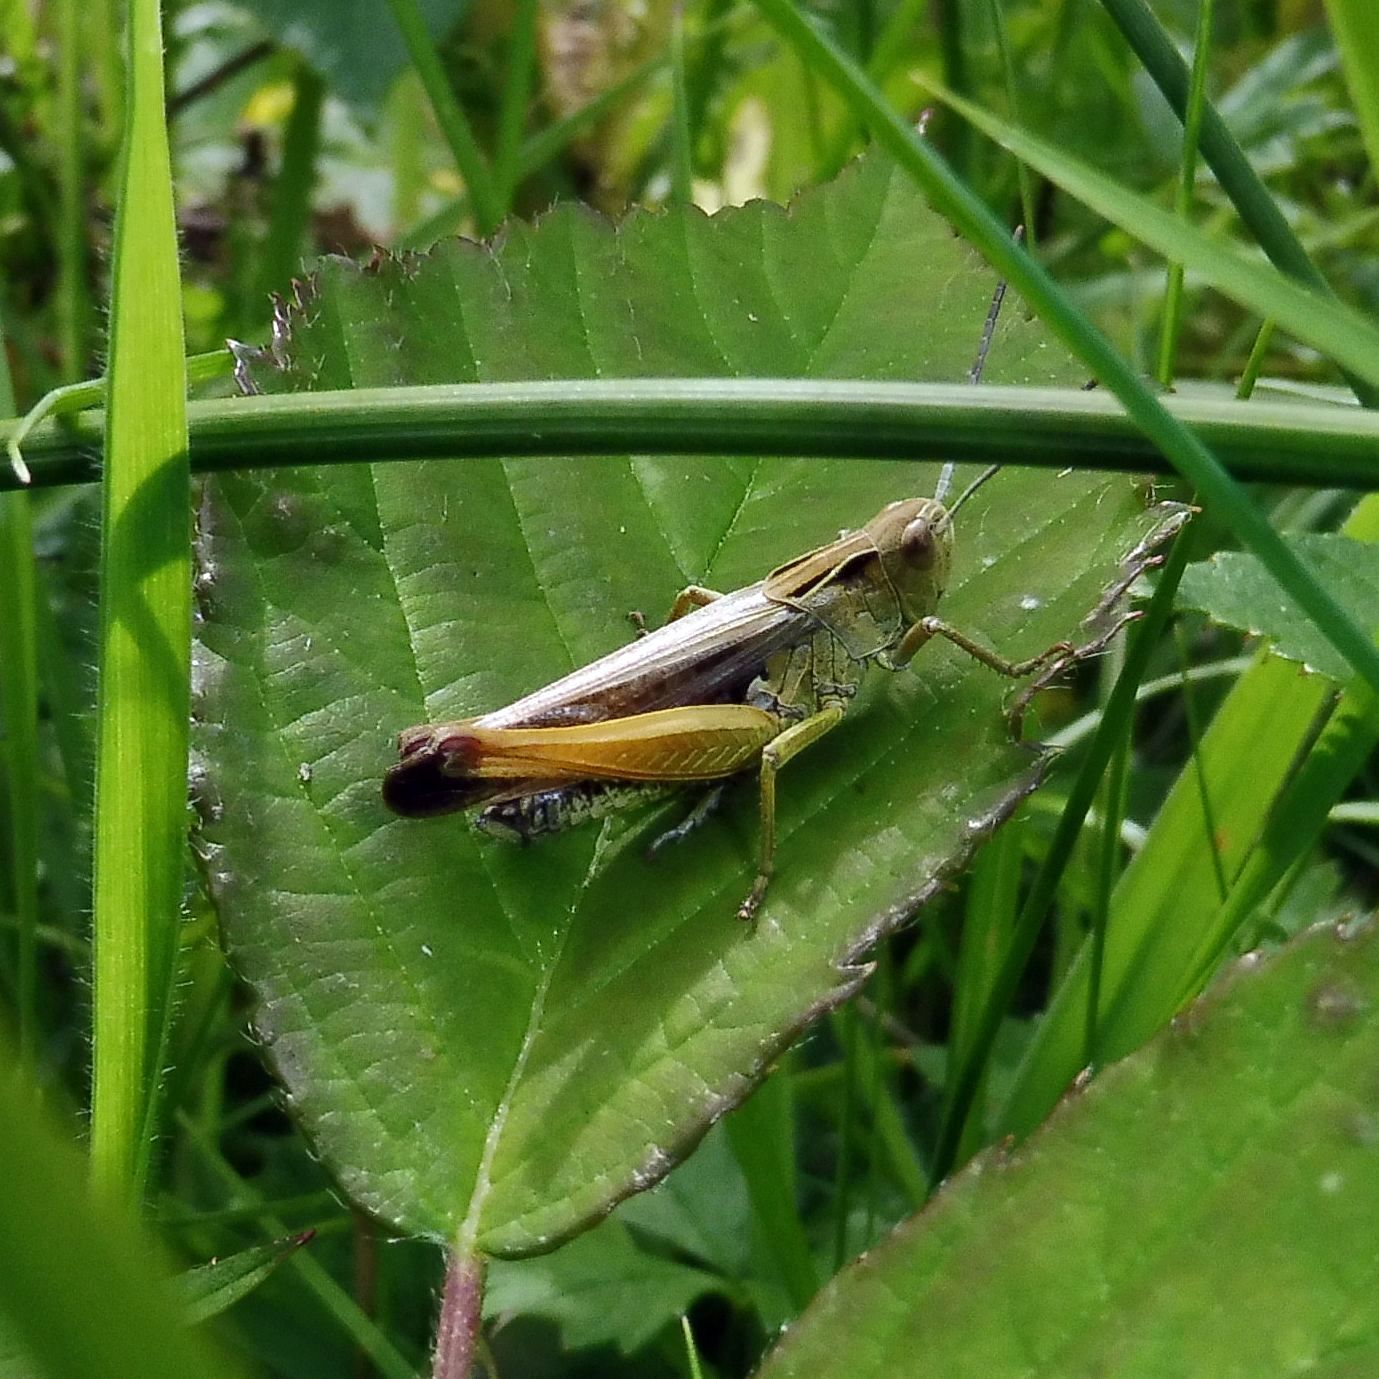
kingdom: Animalia
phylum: Arthropoda
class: Insecta
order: Orthoptera
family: Acrididae
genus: Omocestus
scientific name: Omocestus viridulus
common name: Common green grasshopper
